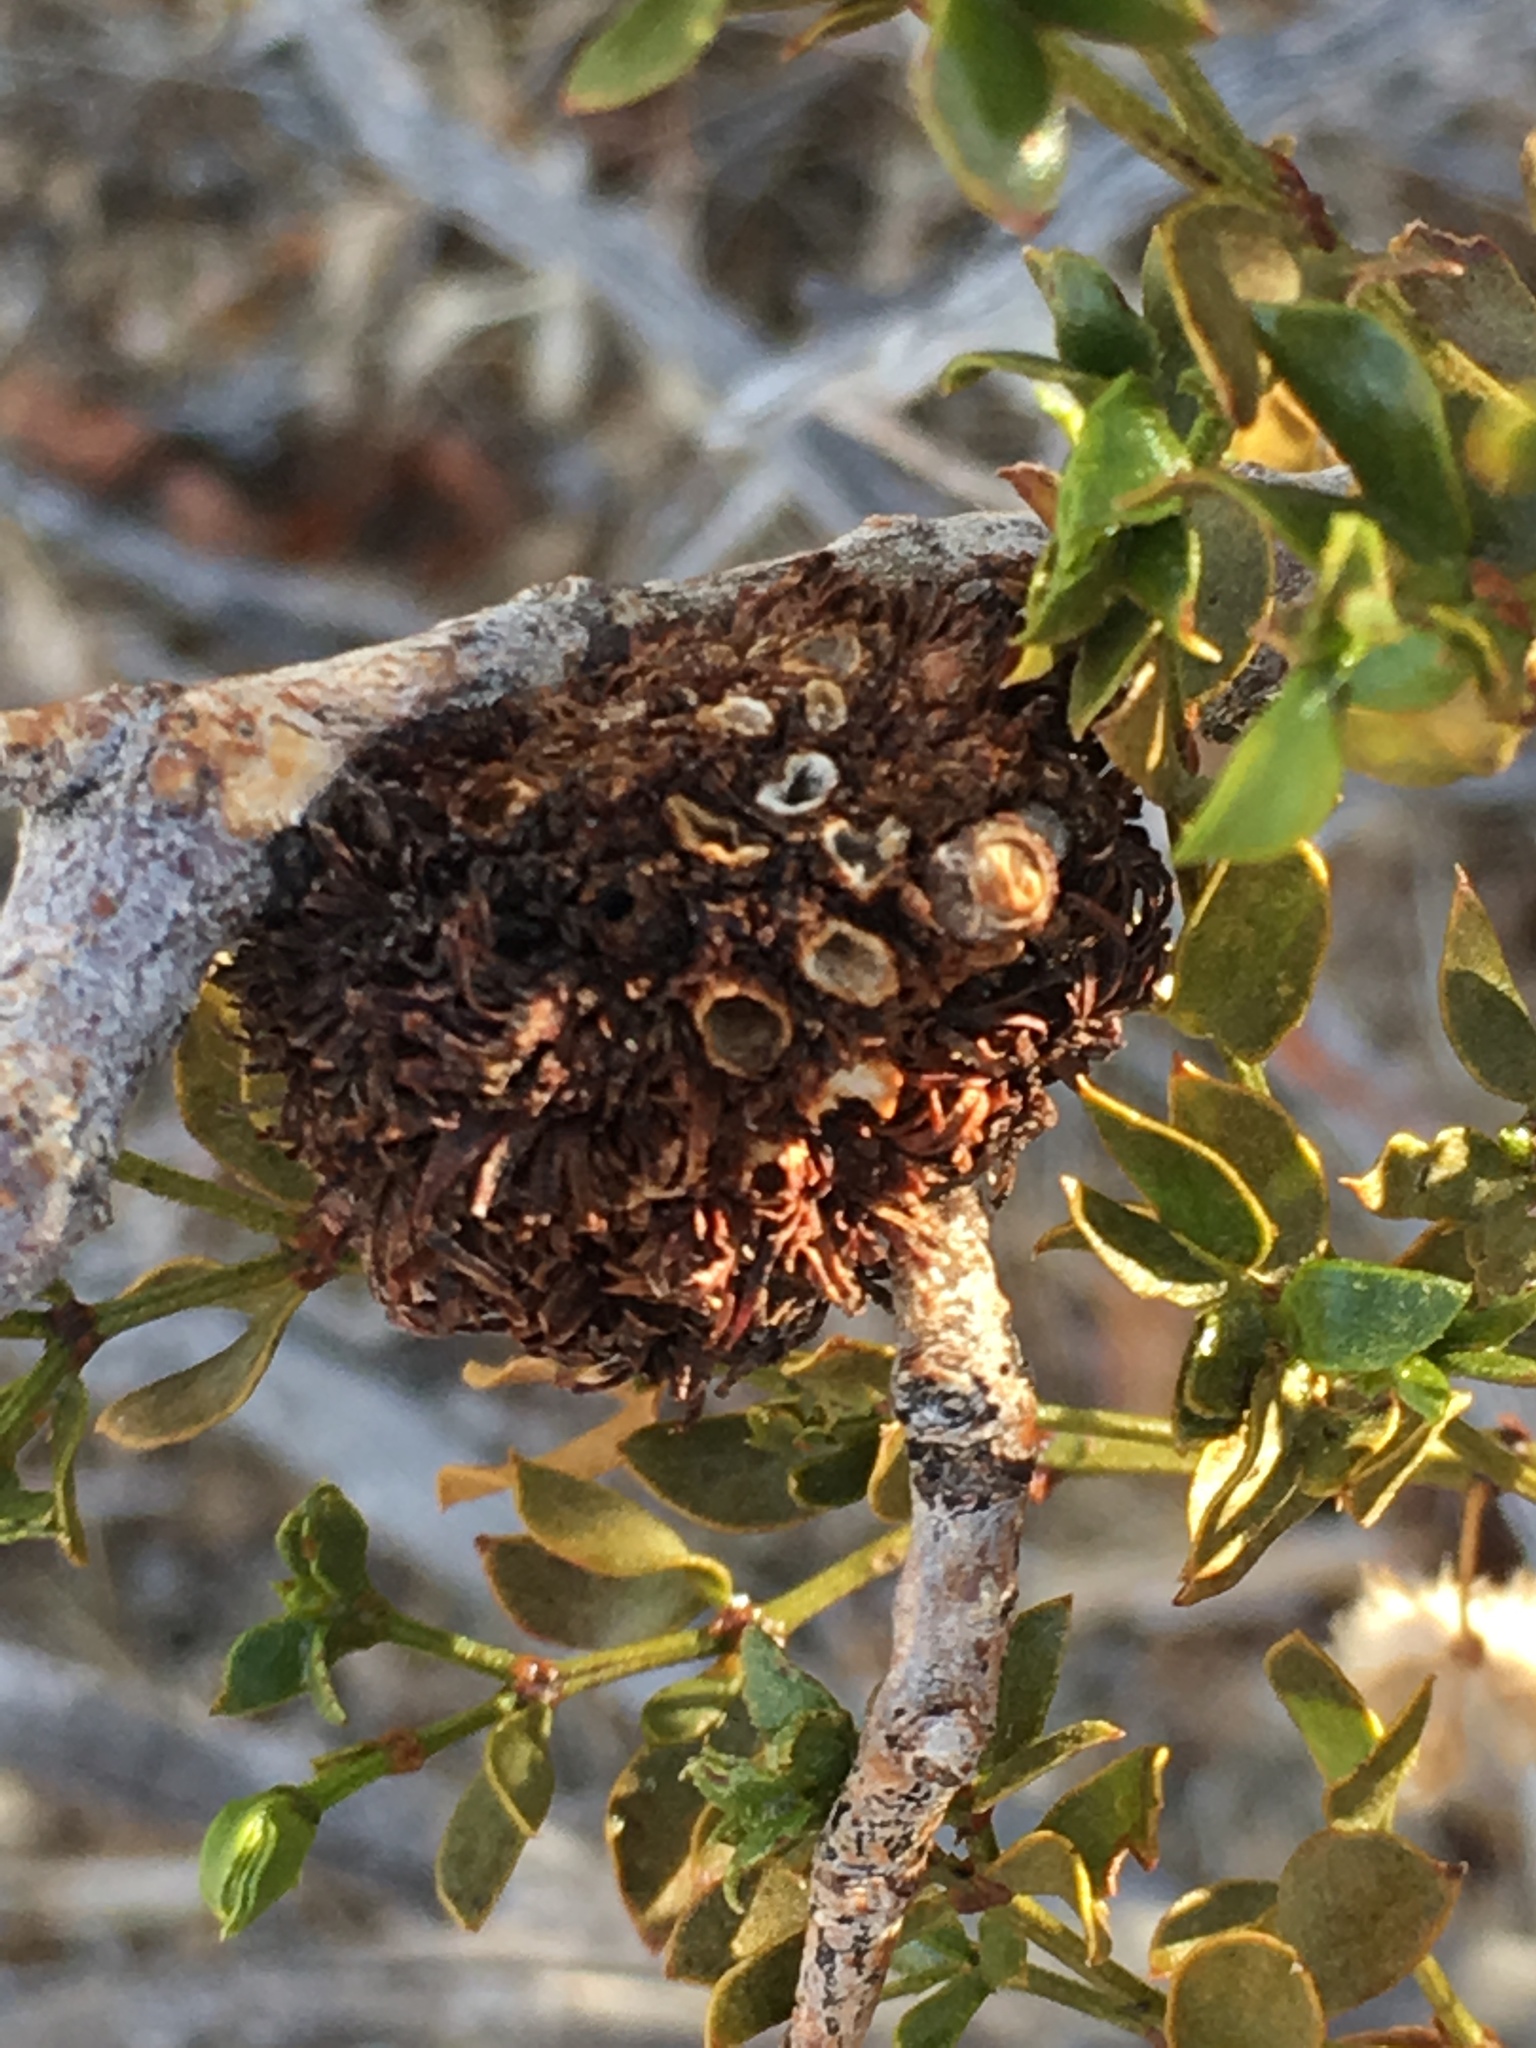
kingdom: Animalia
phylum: Arthropoda
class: Insecta
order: Diptera
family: Cecidomyiidae
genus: Asphondylia
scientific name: Asphondylia auripila
